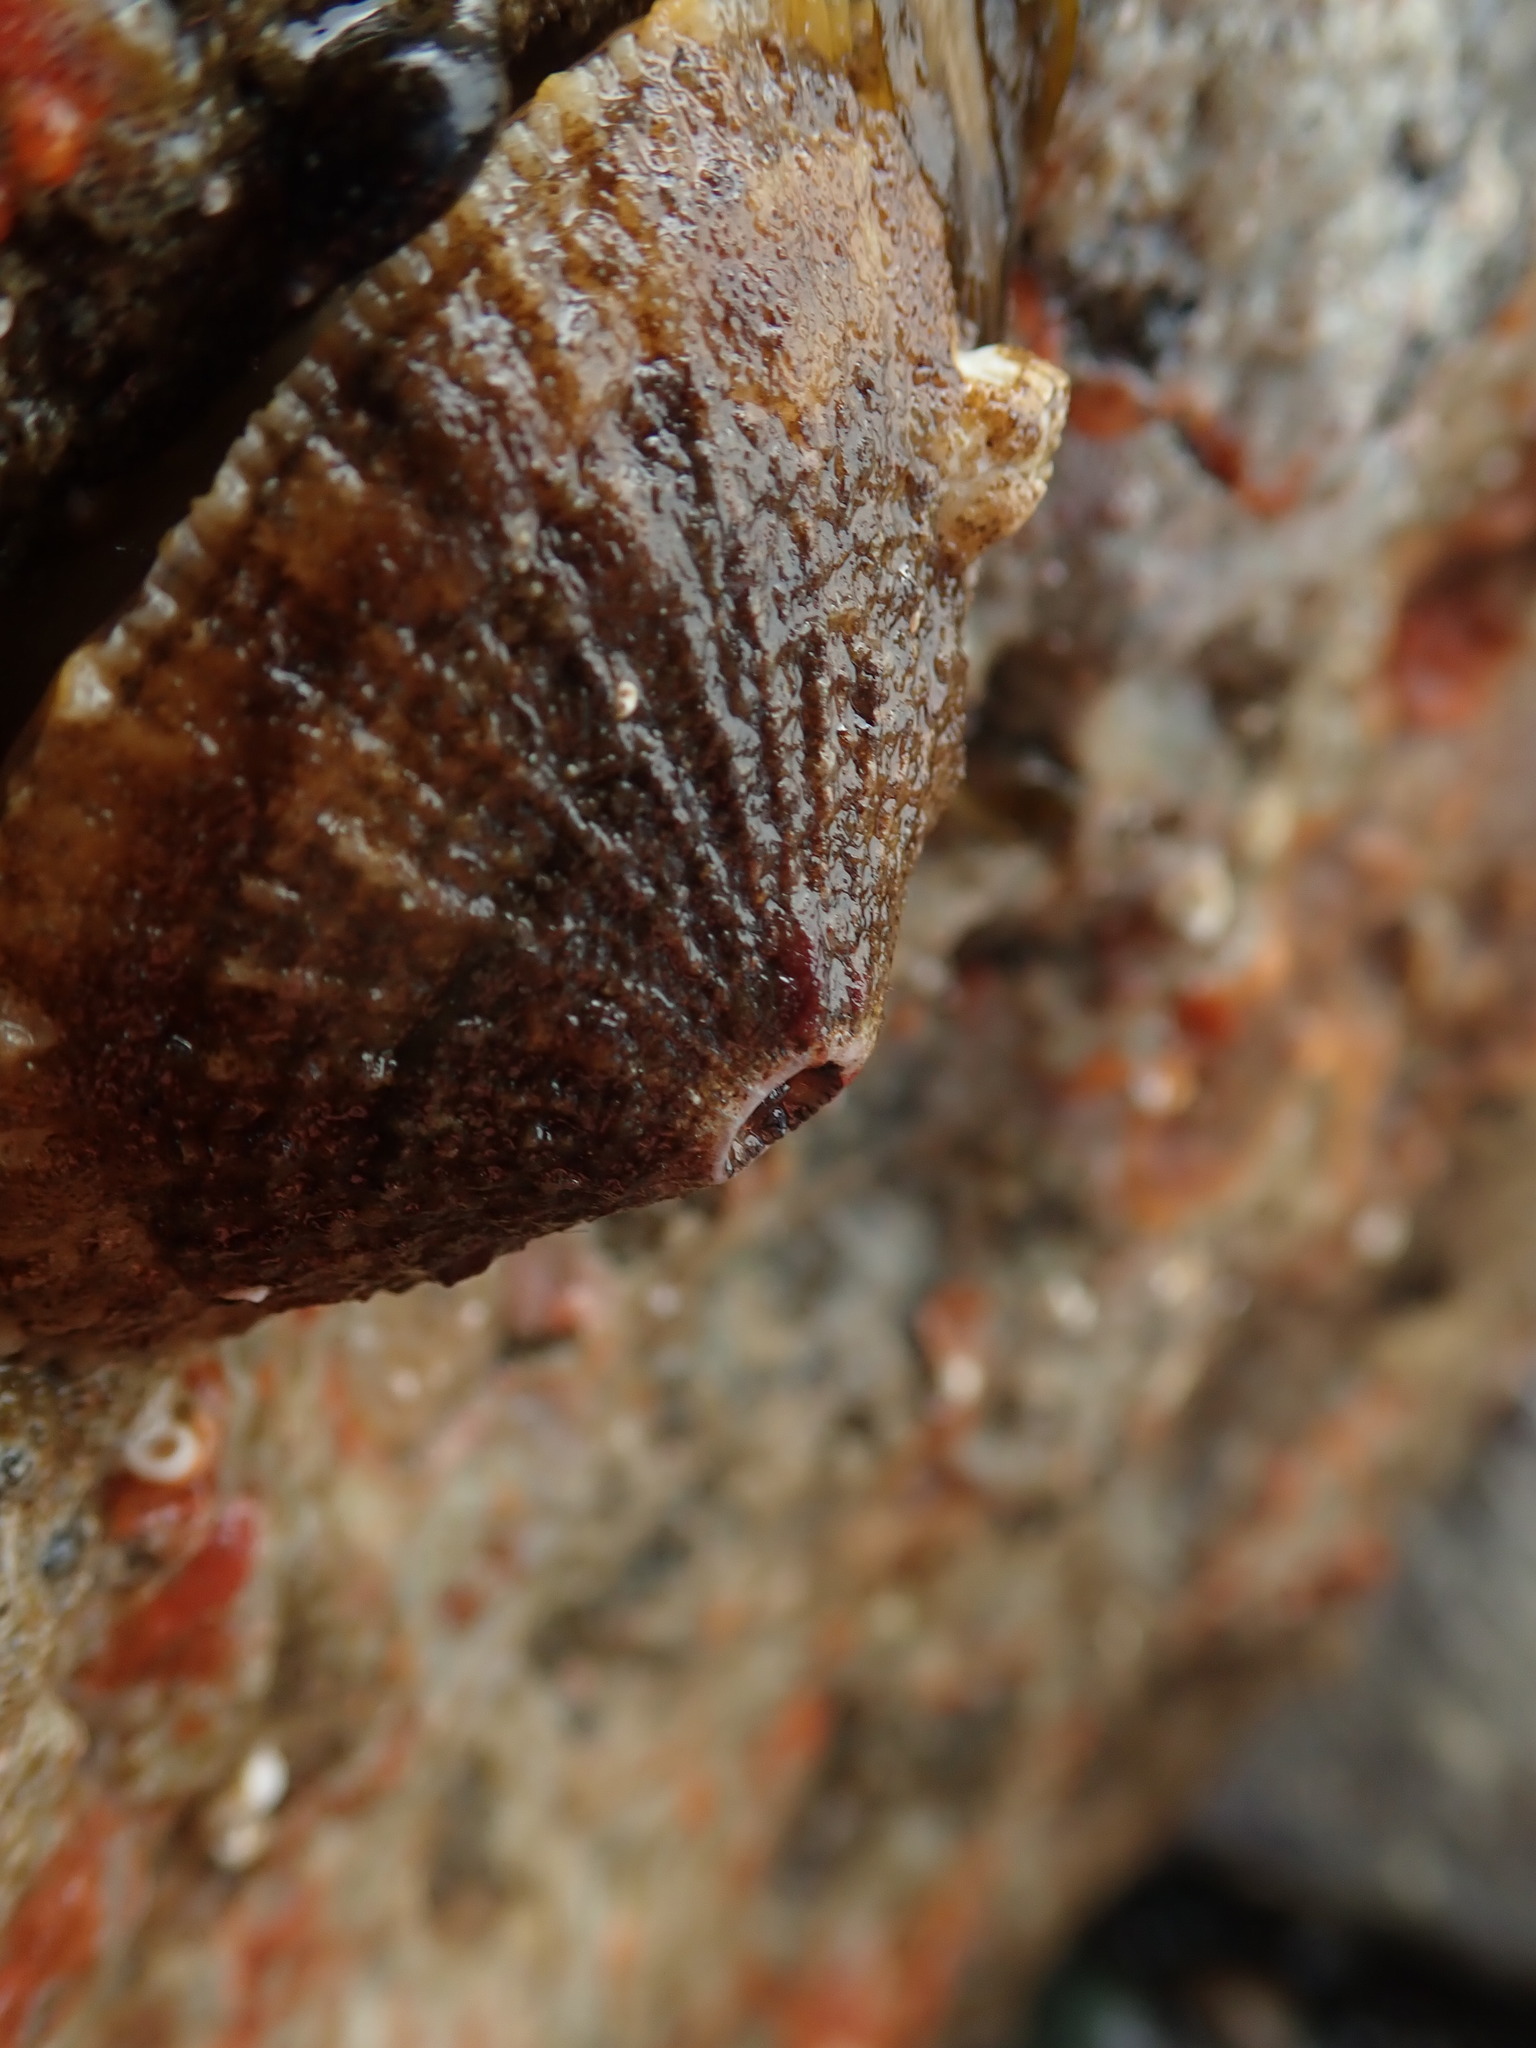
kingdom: Animalia
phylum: Mollusca
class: Gastropoda
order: Lepetellida
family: Fissurellidae
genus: Diodora
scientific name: Diodora aspera
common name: Rough keyhole limpet
